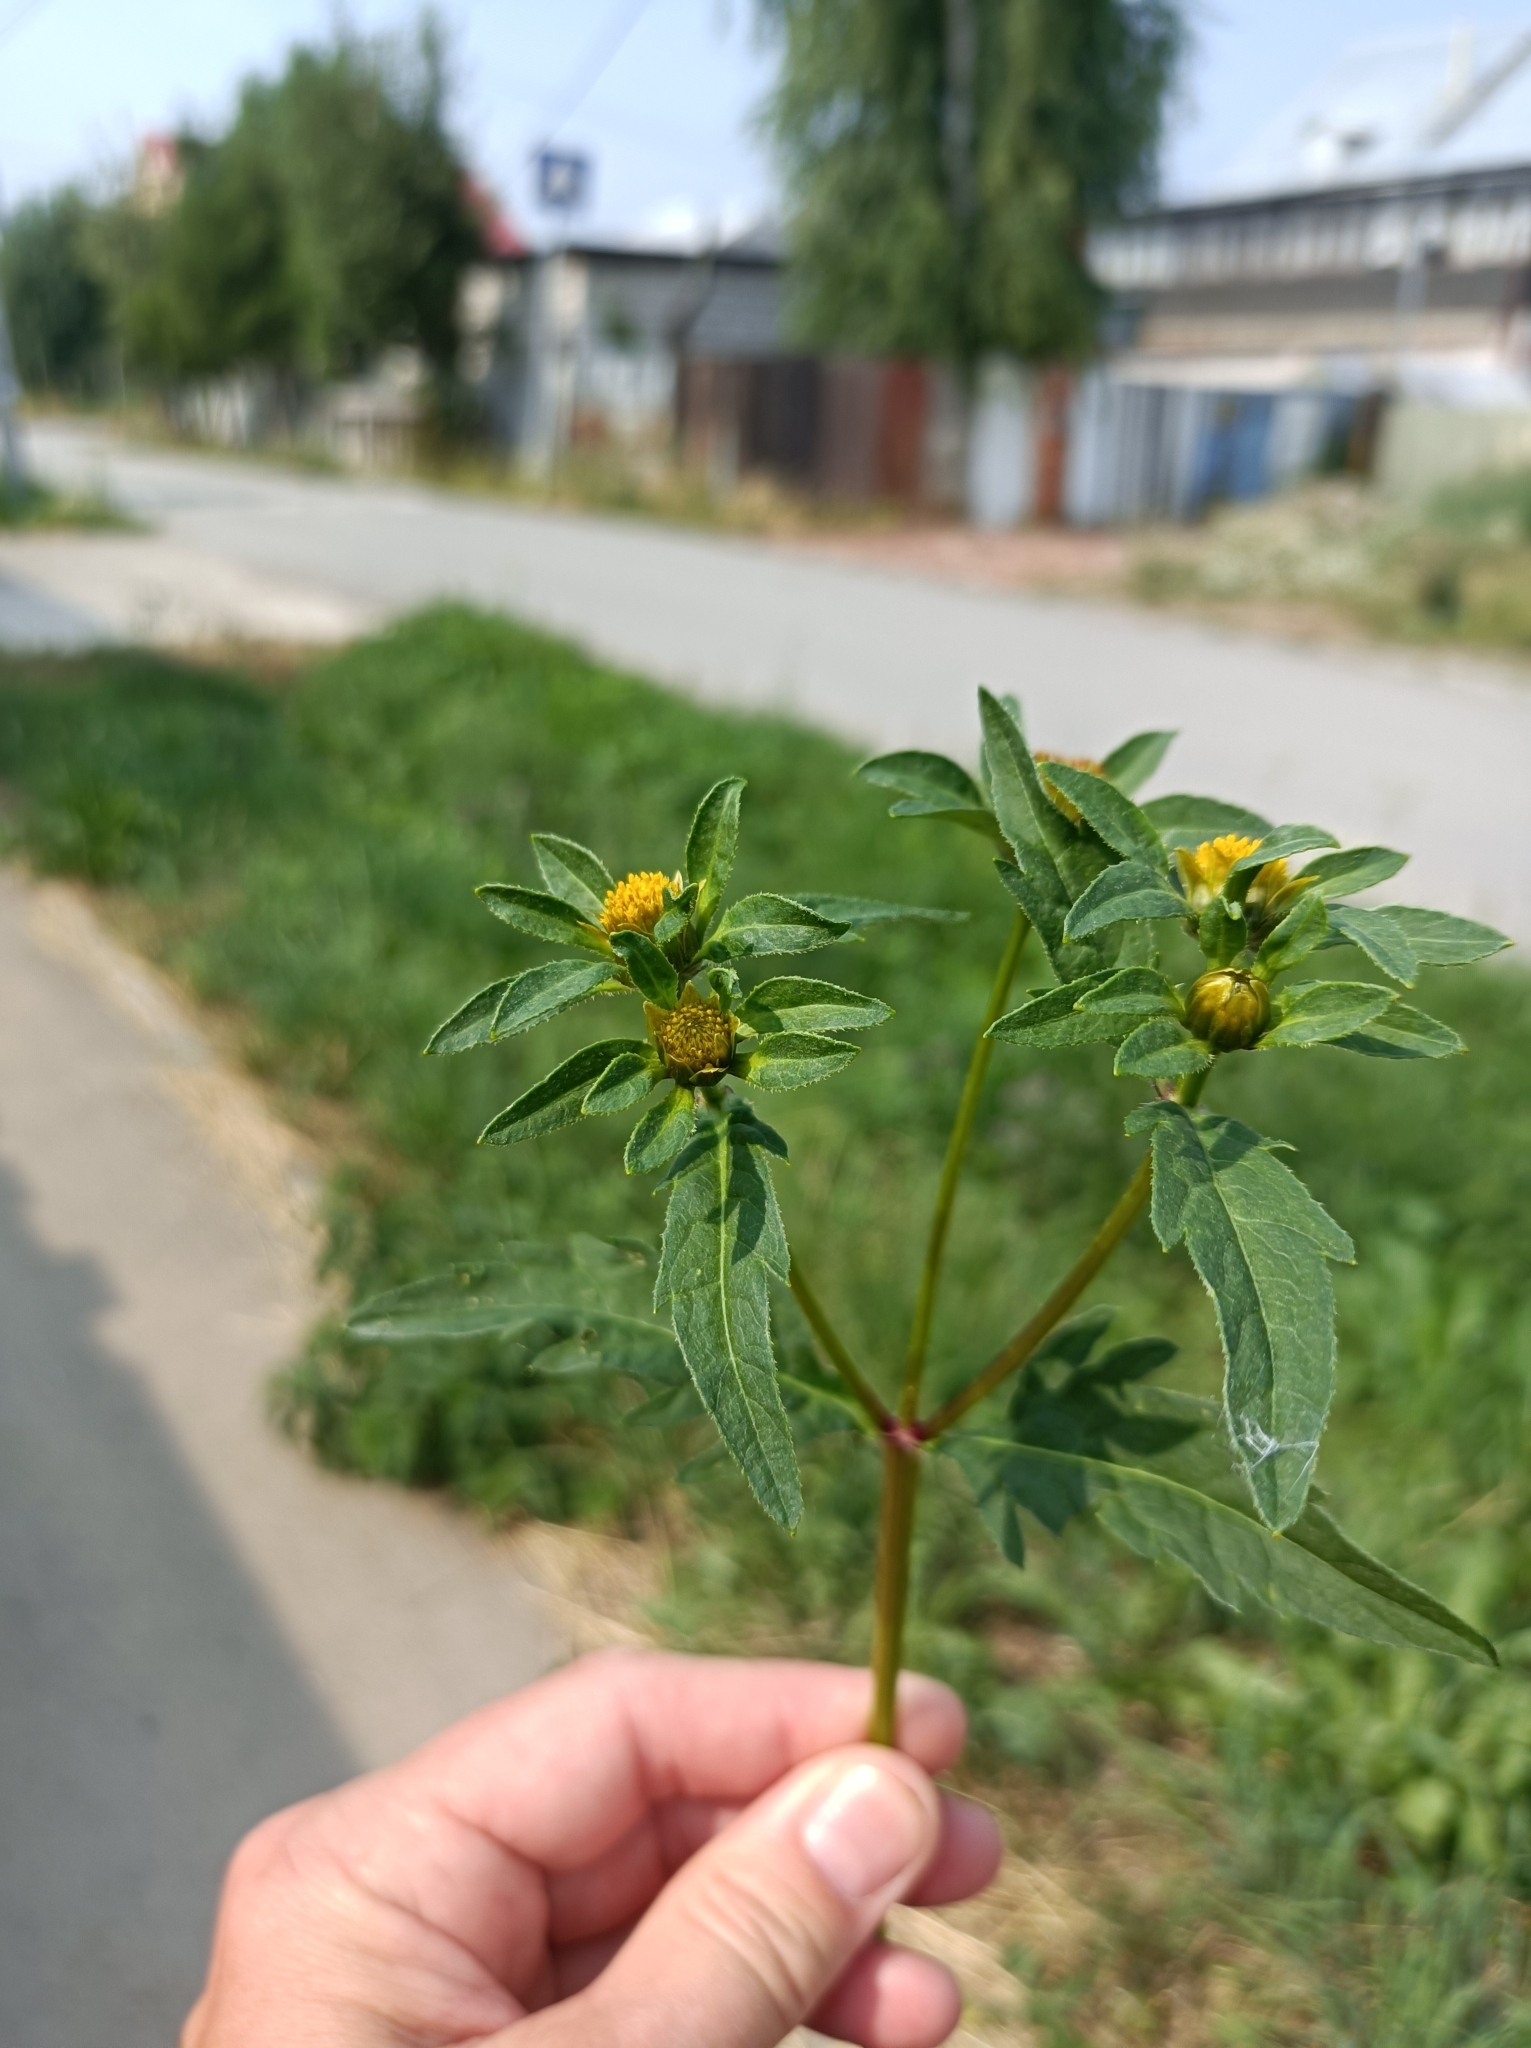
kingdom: Plantae
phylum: Tracheophyta
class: Magnoliopsida
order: Asterales
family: Asteraceae
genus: Bidens
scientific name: Bidens tripartita
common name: Trifid bur-marigold
